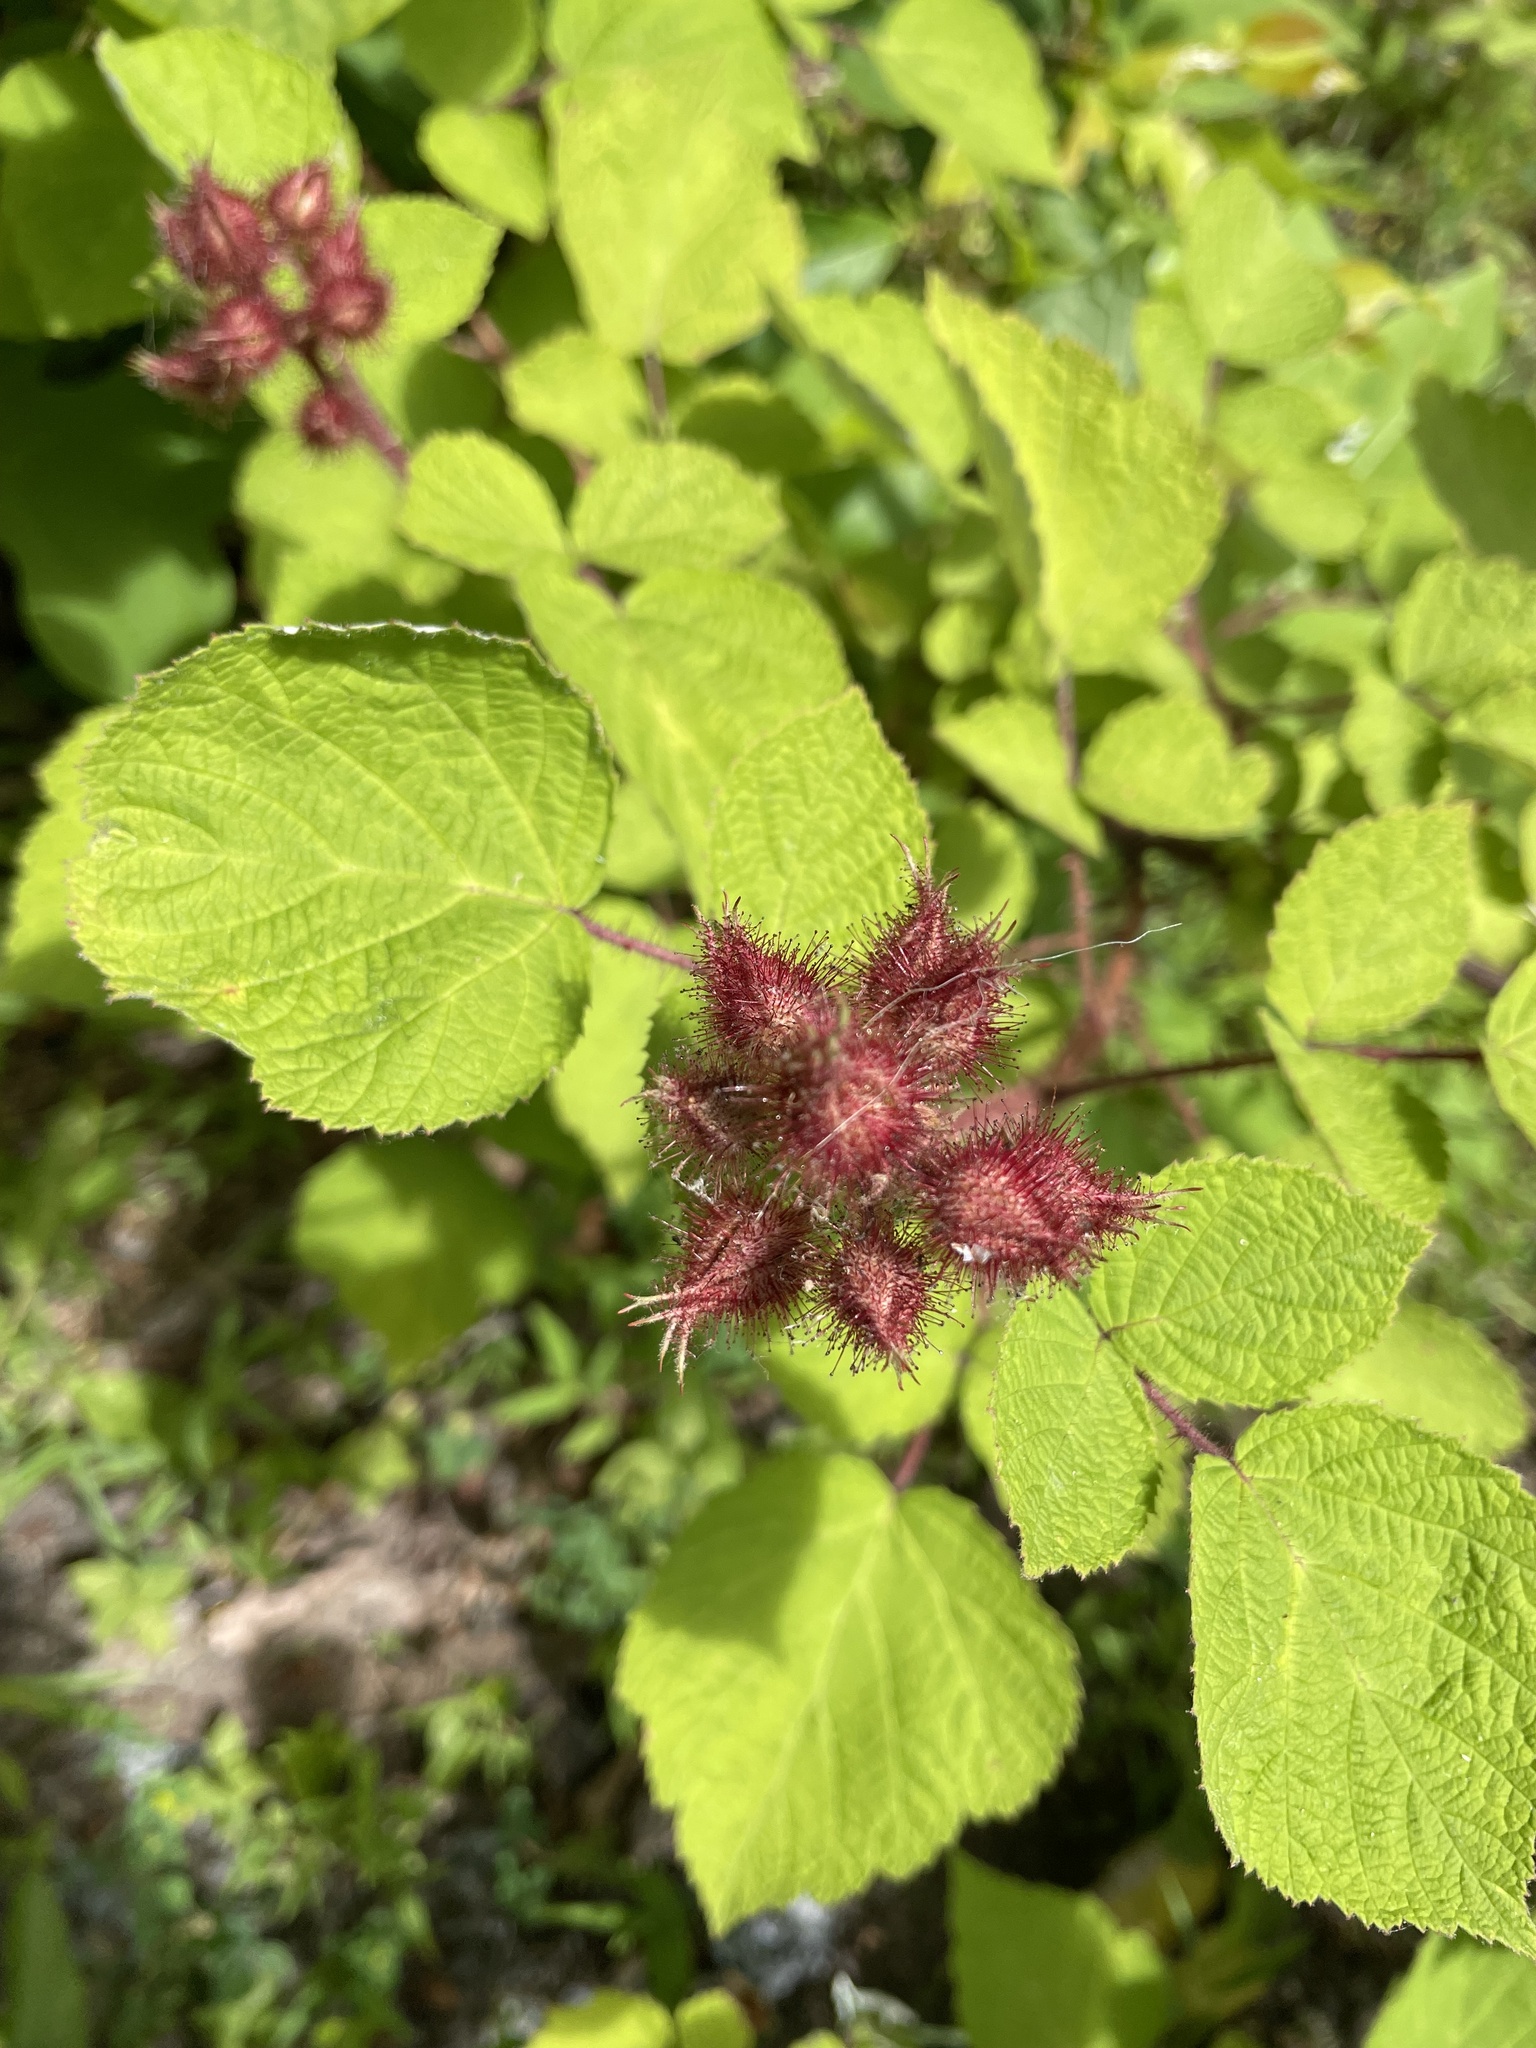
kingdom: Plantae
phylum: Tracheophyta
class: Magnoliopsida
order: Rosales
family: Rosaceae
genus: Rubus
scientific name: Rubus phoenicolasius
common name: Japanese wineberry
